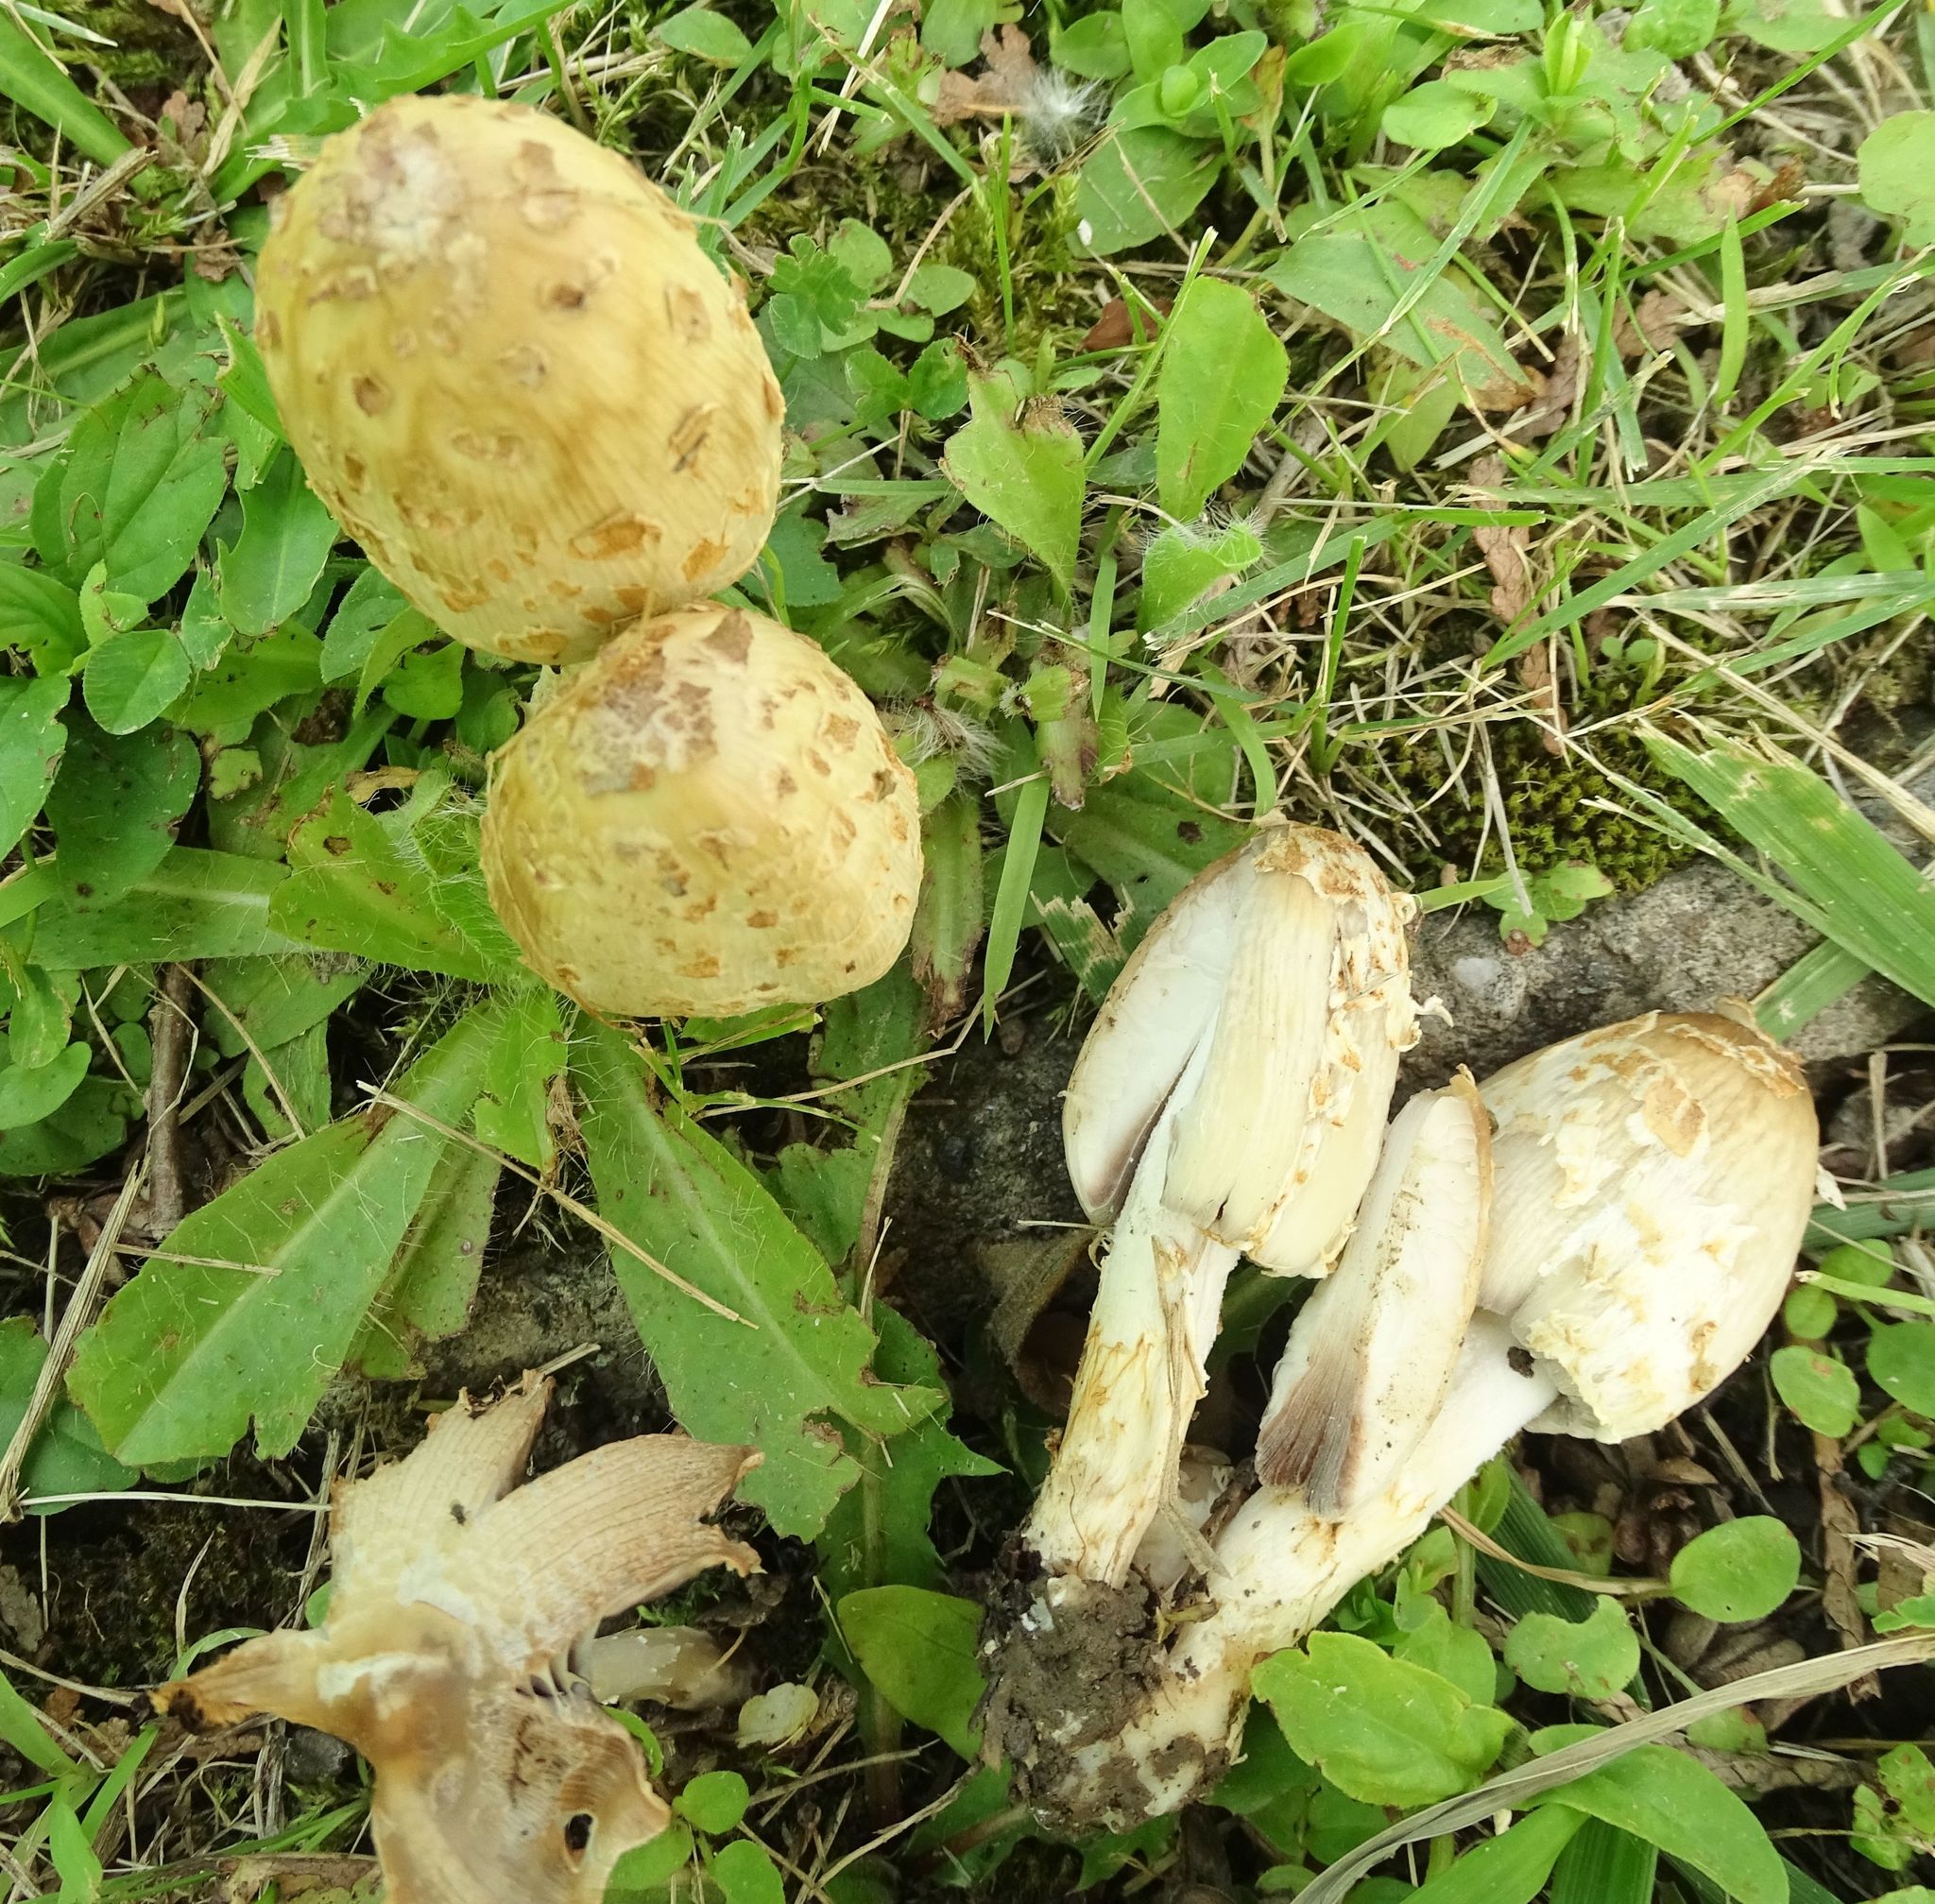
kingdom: Fungi
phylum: Basidiomycota
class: Agaricomycetes
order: Agaricales
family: Psathyrellaceae
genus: Coprinopsis
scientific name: Coprinopsis variegata
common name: Scaly ink cap
